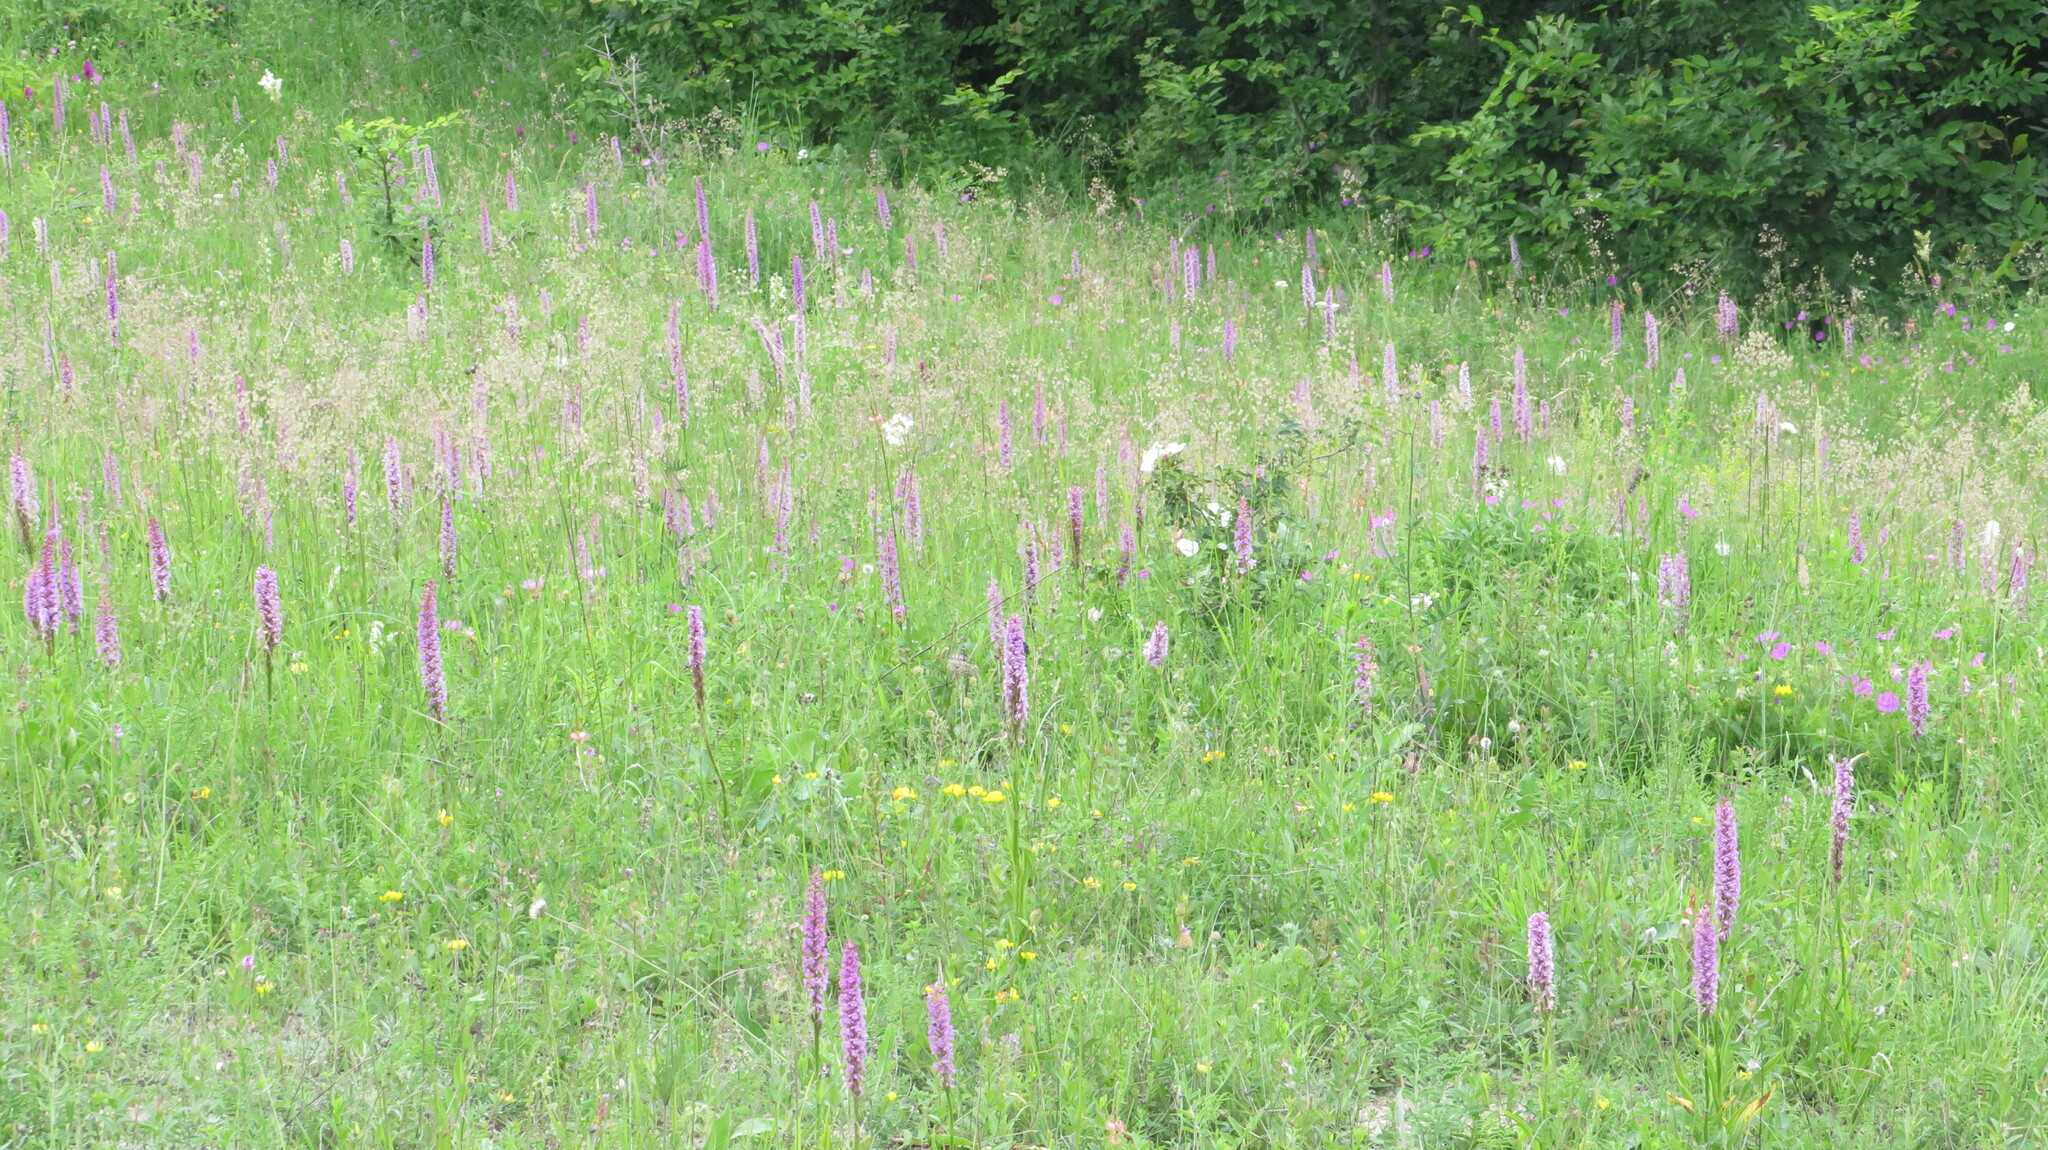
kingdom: Plantae
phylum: Tracheophyta
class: Liliopsida
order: Asparagales
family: Orchidaceae
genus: Gymnadenia
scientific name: Gymnadenia conopsea
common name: Fragrant orchid
